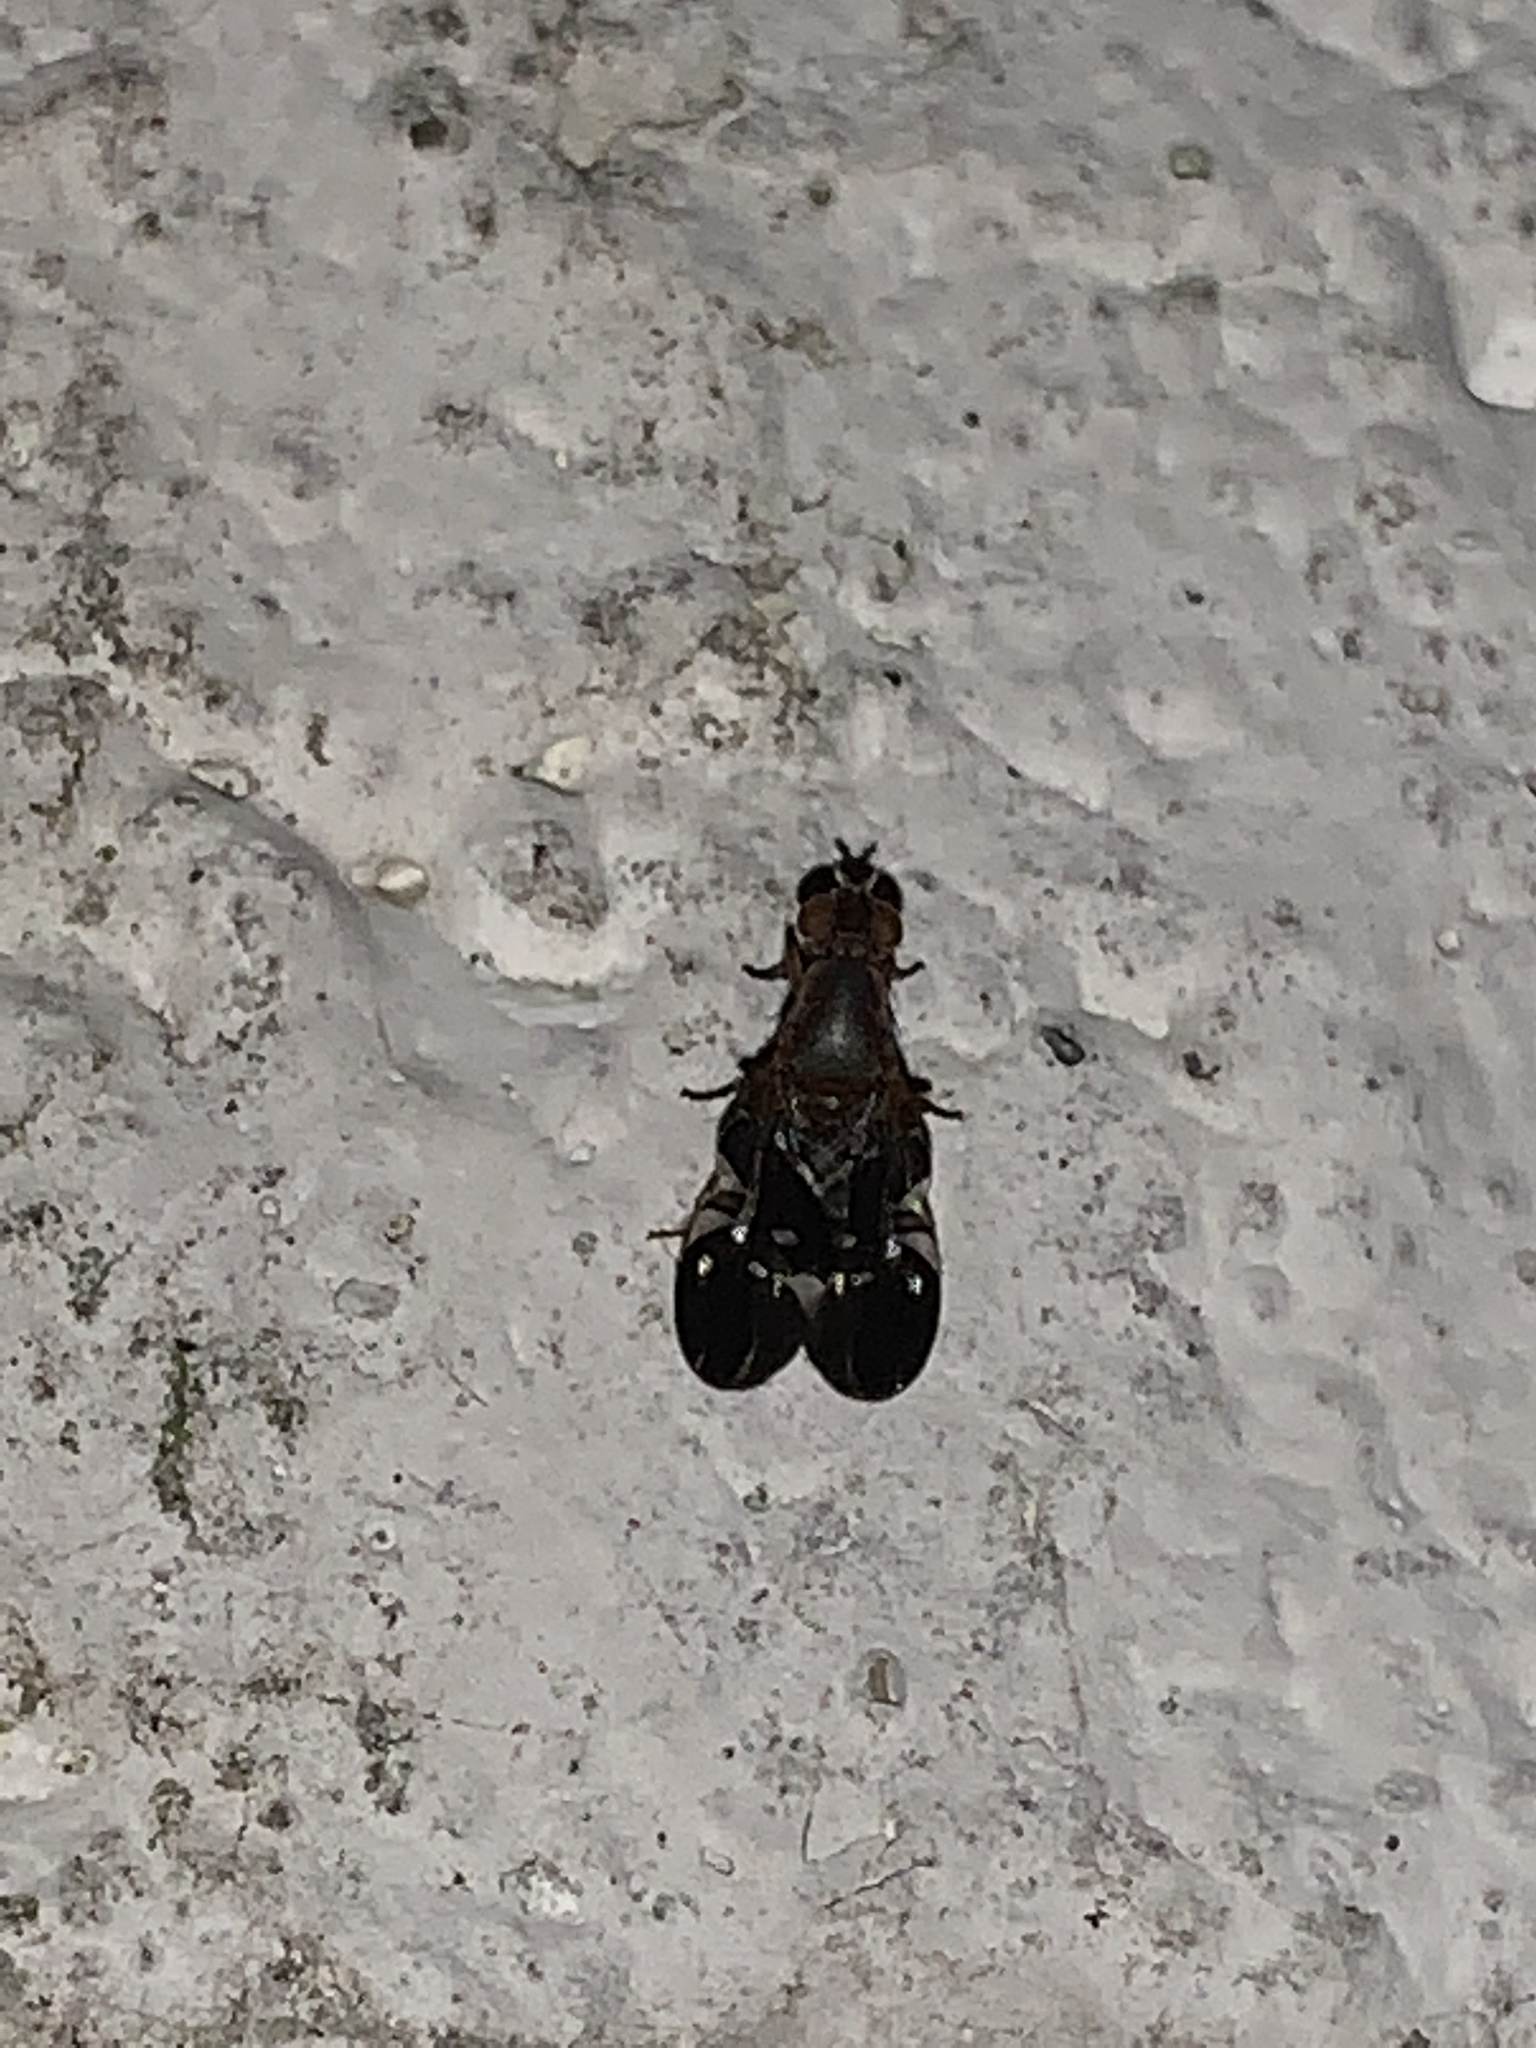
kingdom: Animalia
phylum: Arthropoda
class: Insecta
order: Diptera
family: Ulidiidae
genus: Delphinia
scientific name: Delphinia picta
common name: Common picture-winged fly
